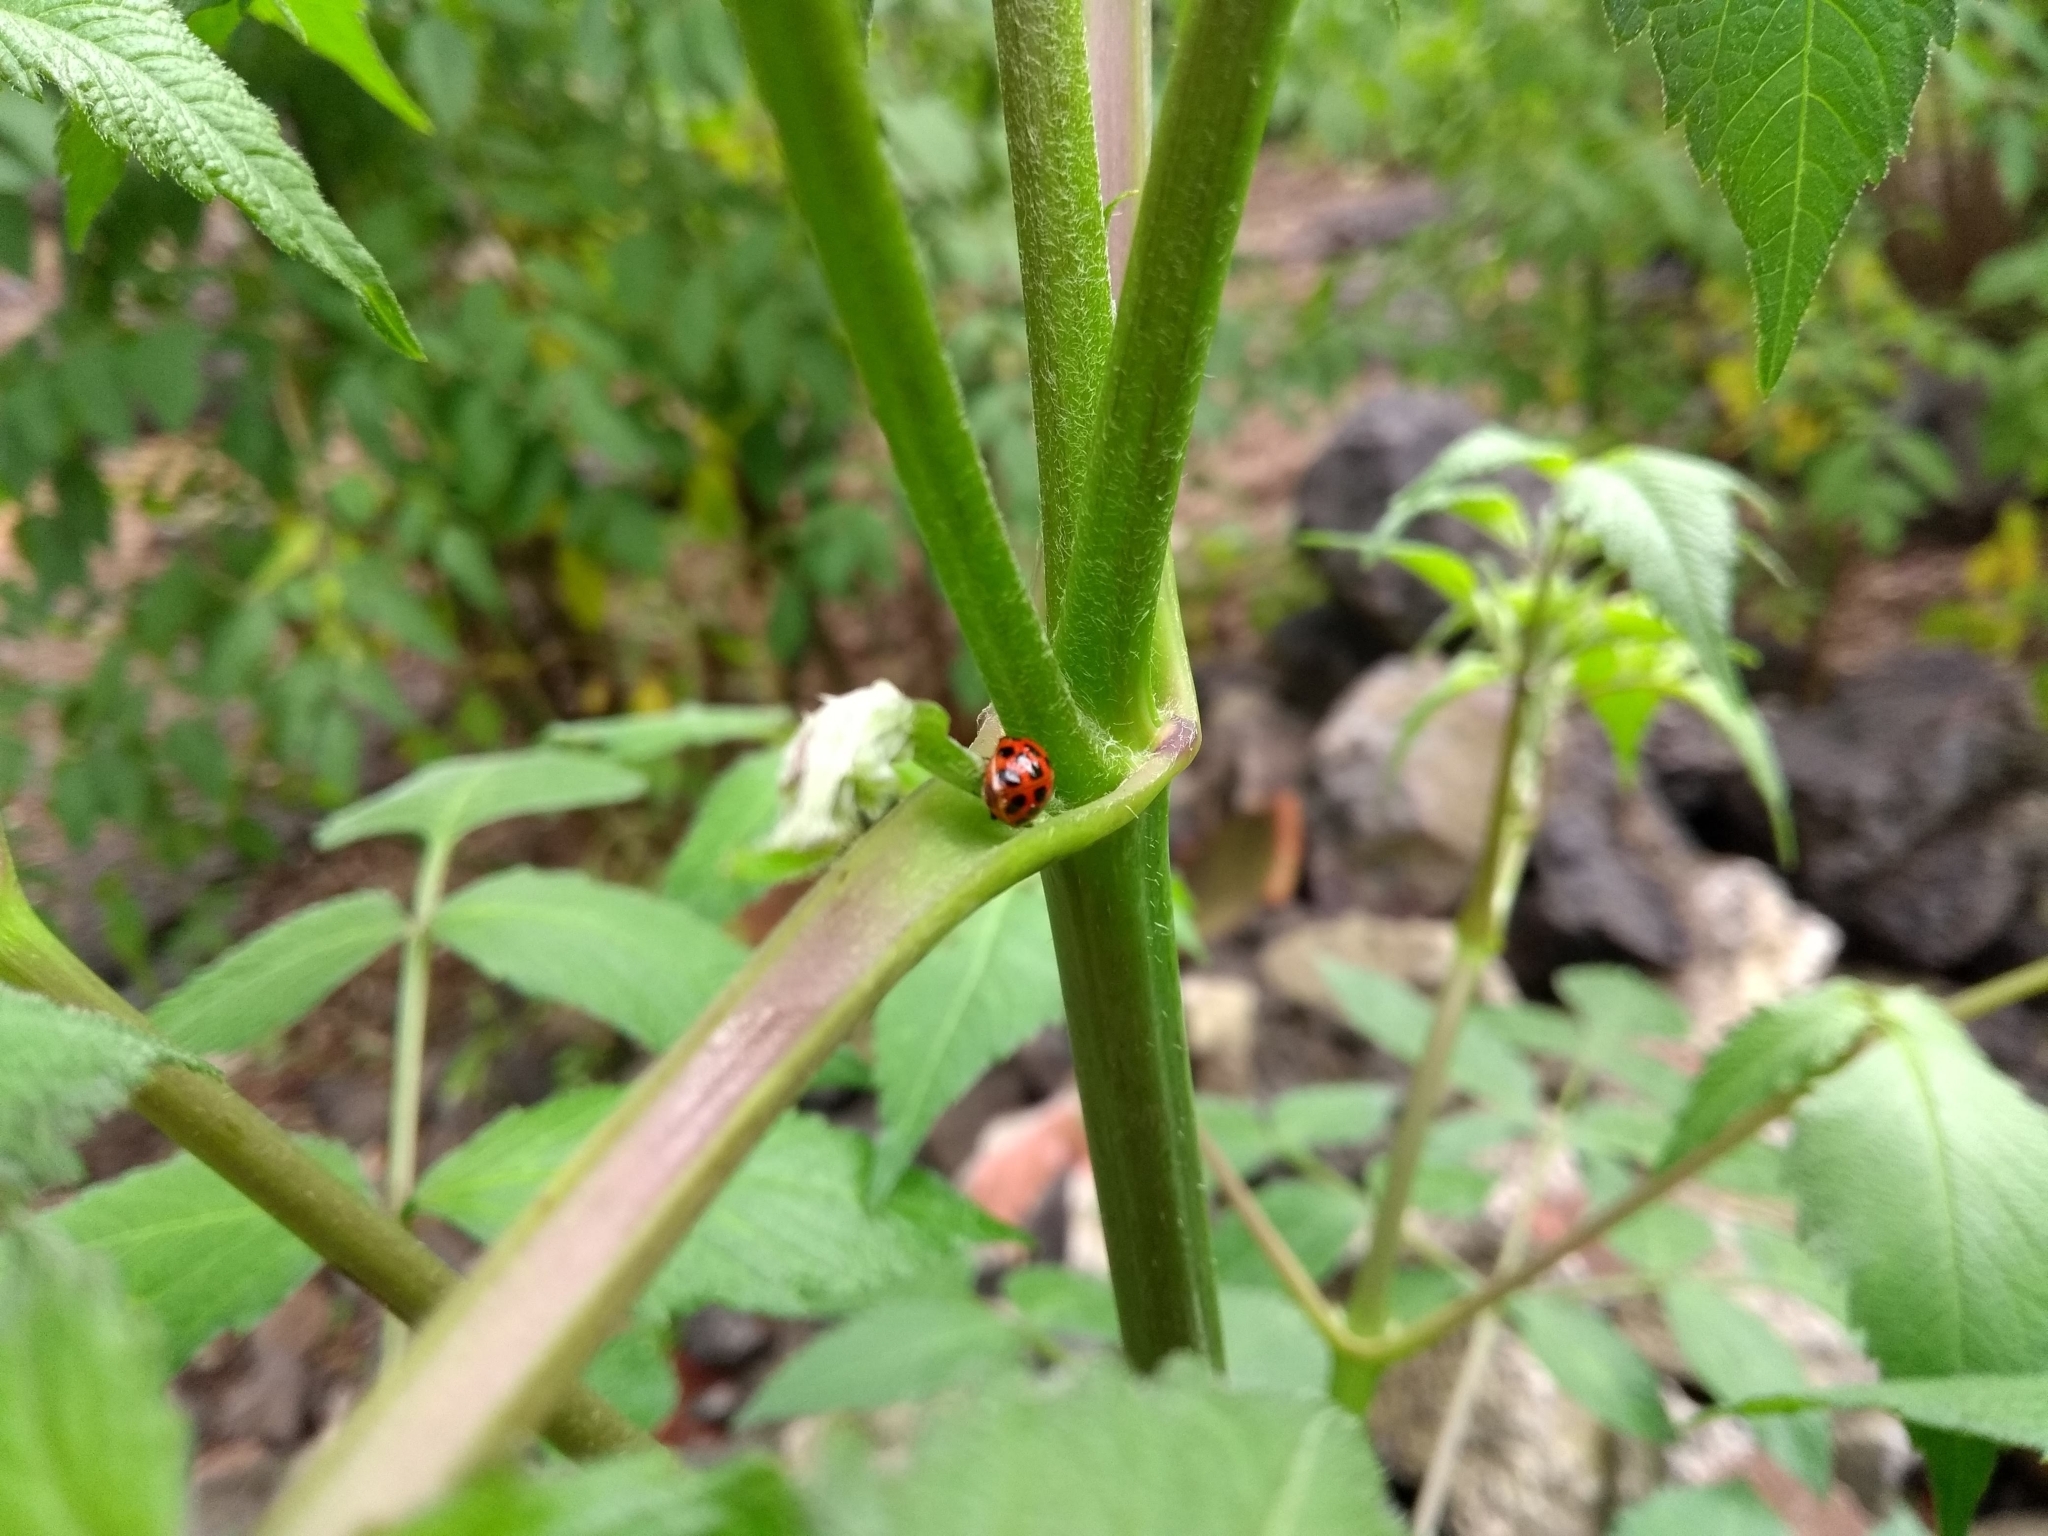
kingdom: Animalia
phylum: Arthropoda
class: Insecta
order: Coleoptera
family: Coccinellidae
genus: Harmonia
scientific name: Harmonia axyridis
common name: Harlequin ladybird
